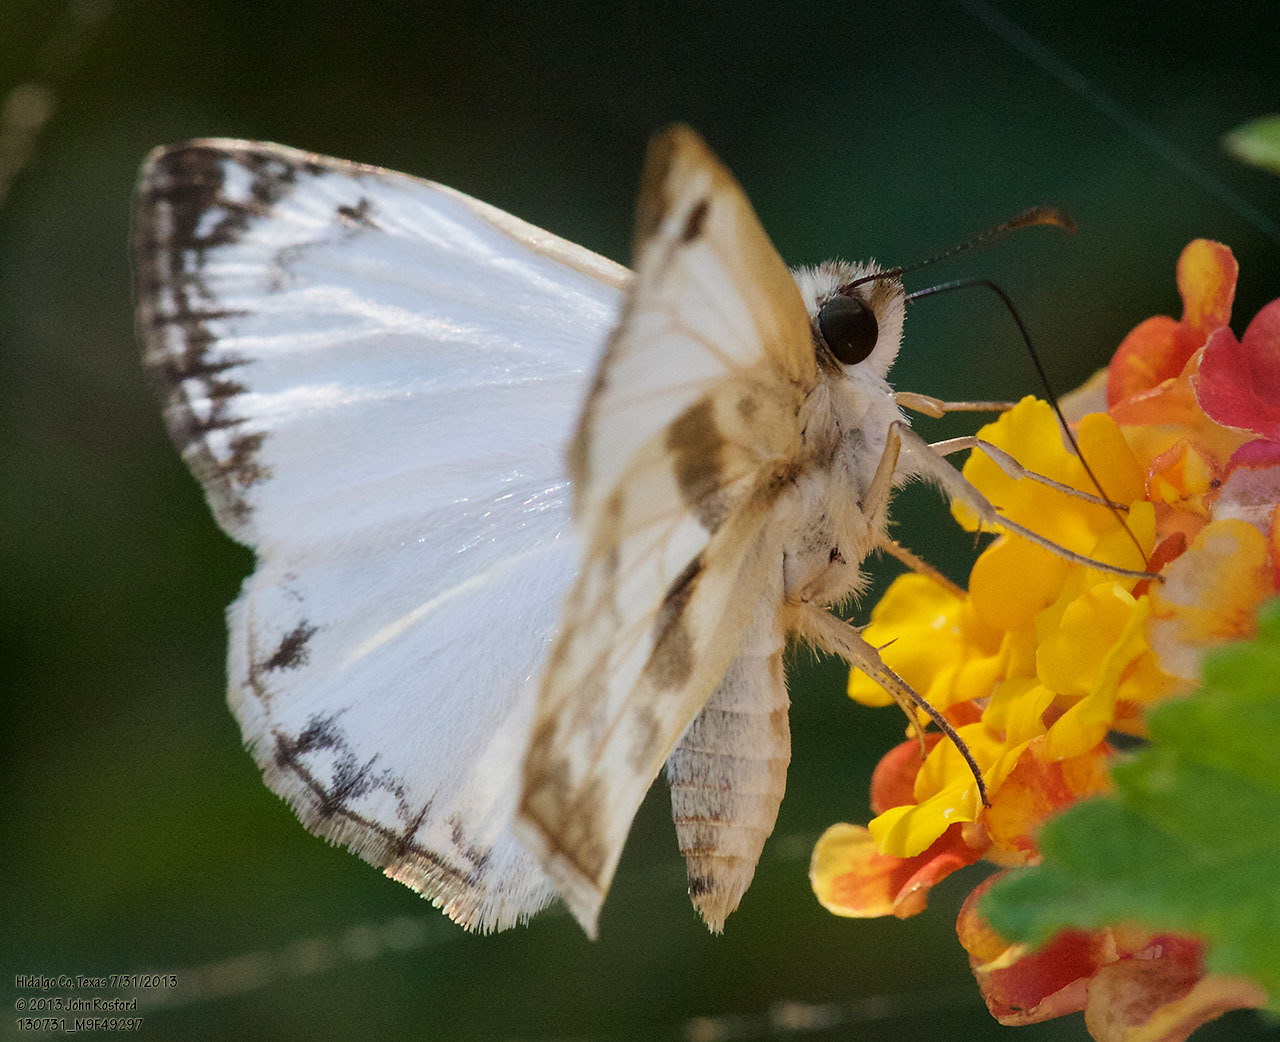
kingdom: Animalia
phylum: Arthropoda
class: Insecta
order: Lepidoptera
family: Hesperiidae
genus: Heliopetes
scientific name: Heliopetes laviana
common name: Laviana white-skipper
